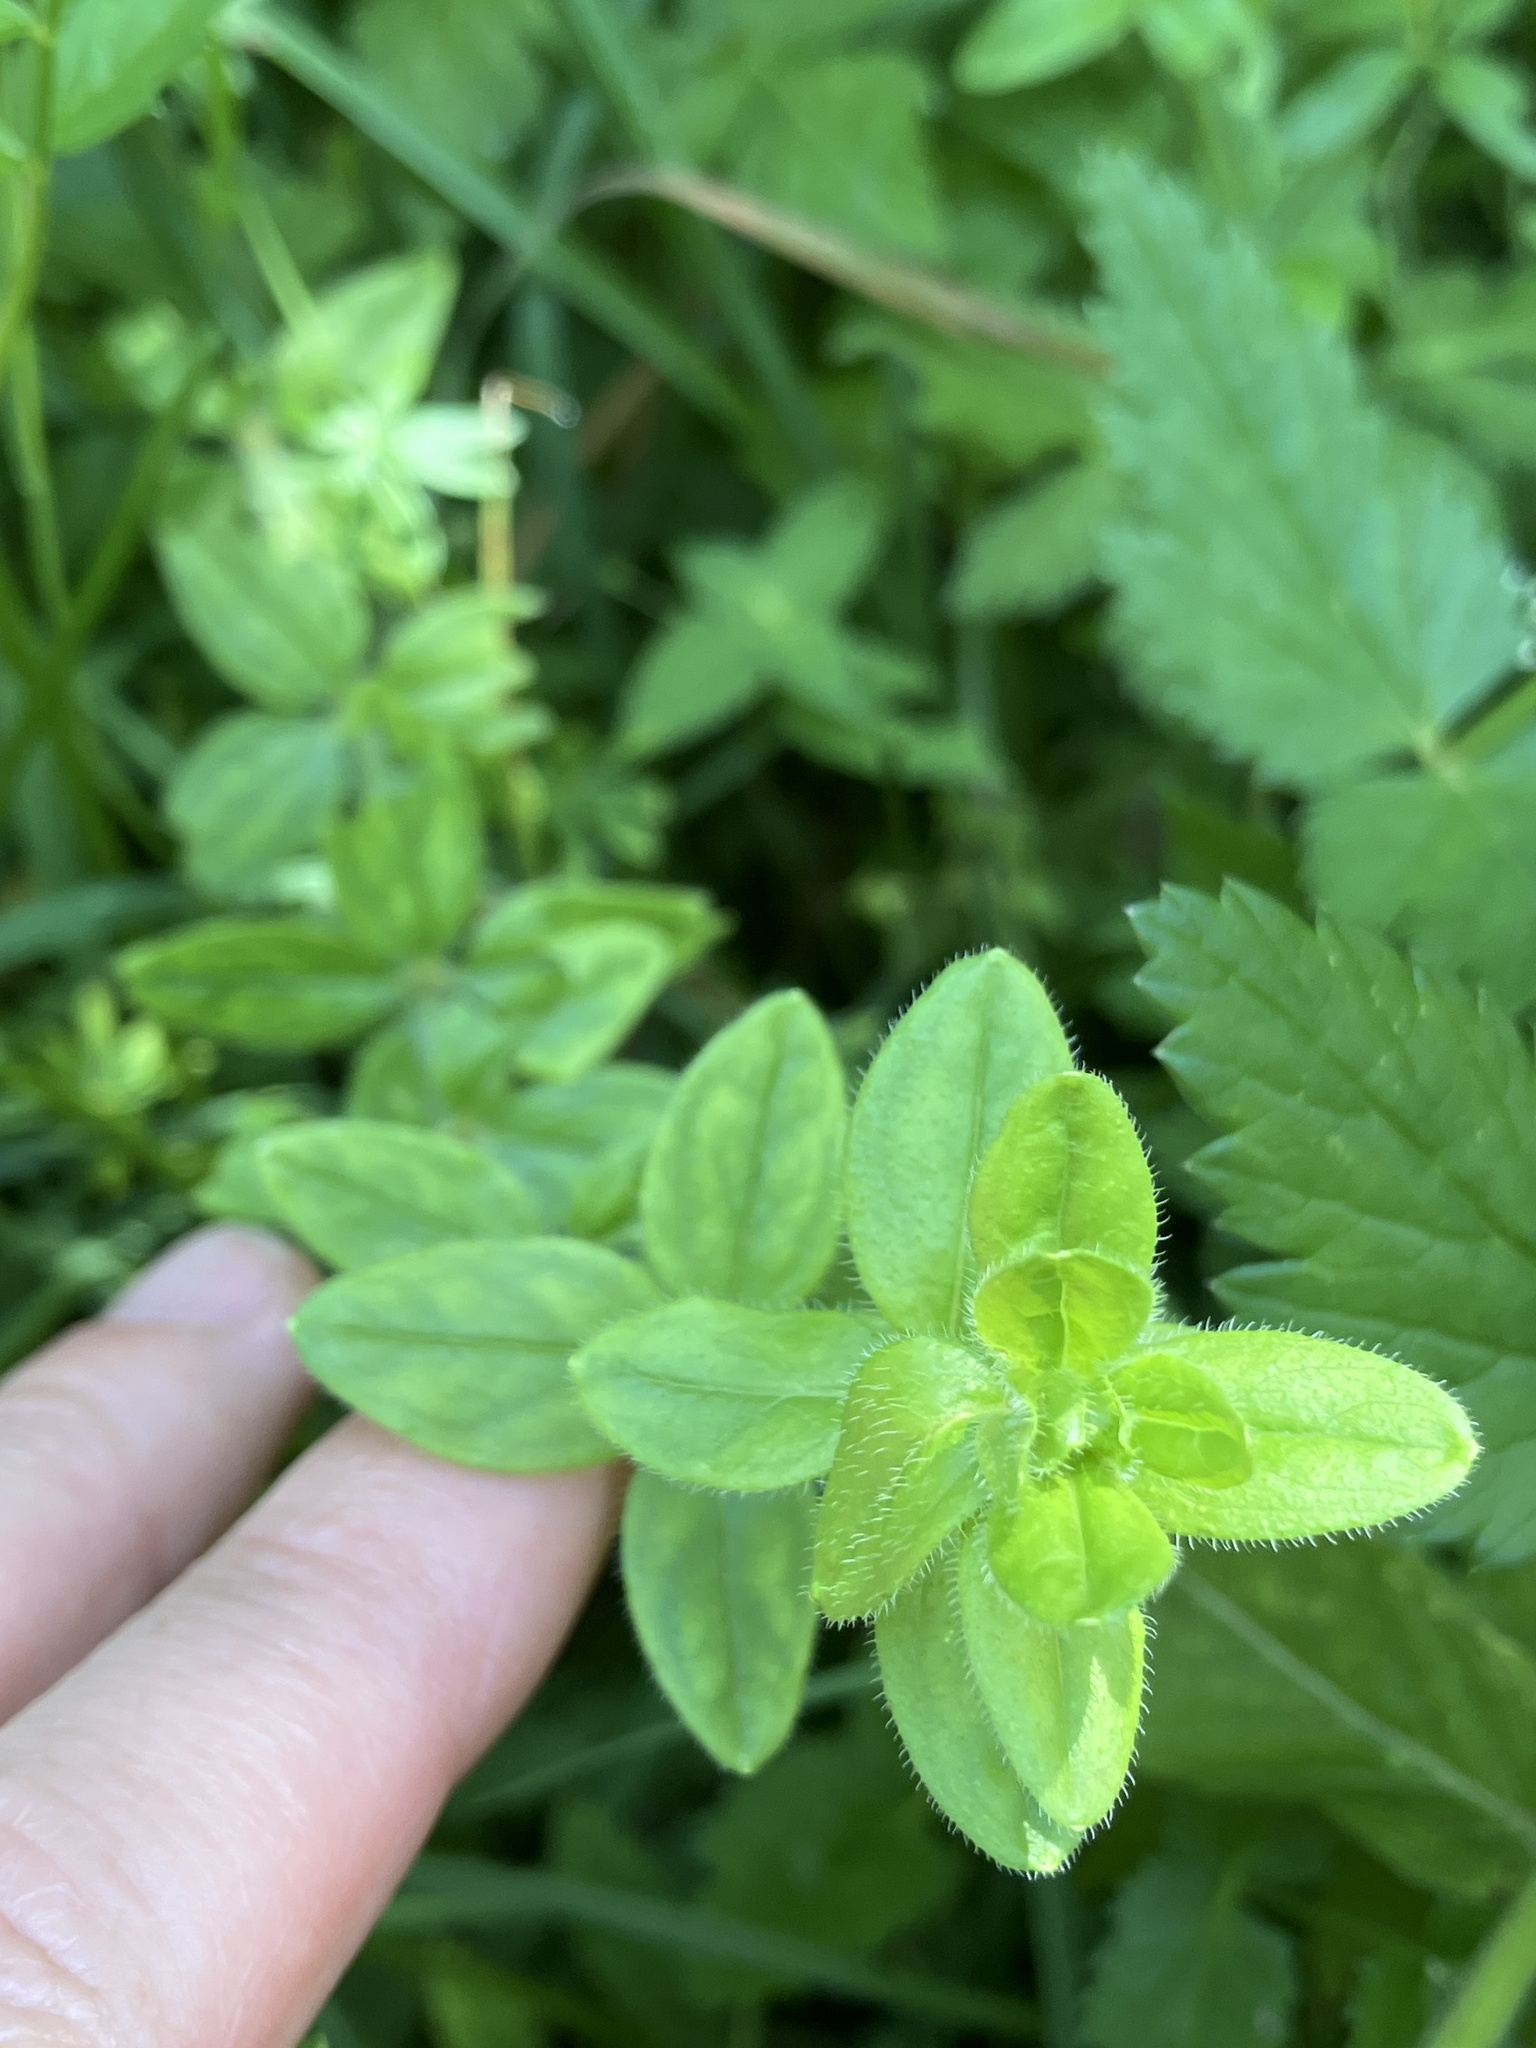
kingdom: Plantae
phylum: Tracheophyta
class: Magnoliopsida
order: Gentianales
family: Rubiaceae
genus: Cruciata
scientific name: Cruciata laevipes
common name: Crosswort
